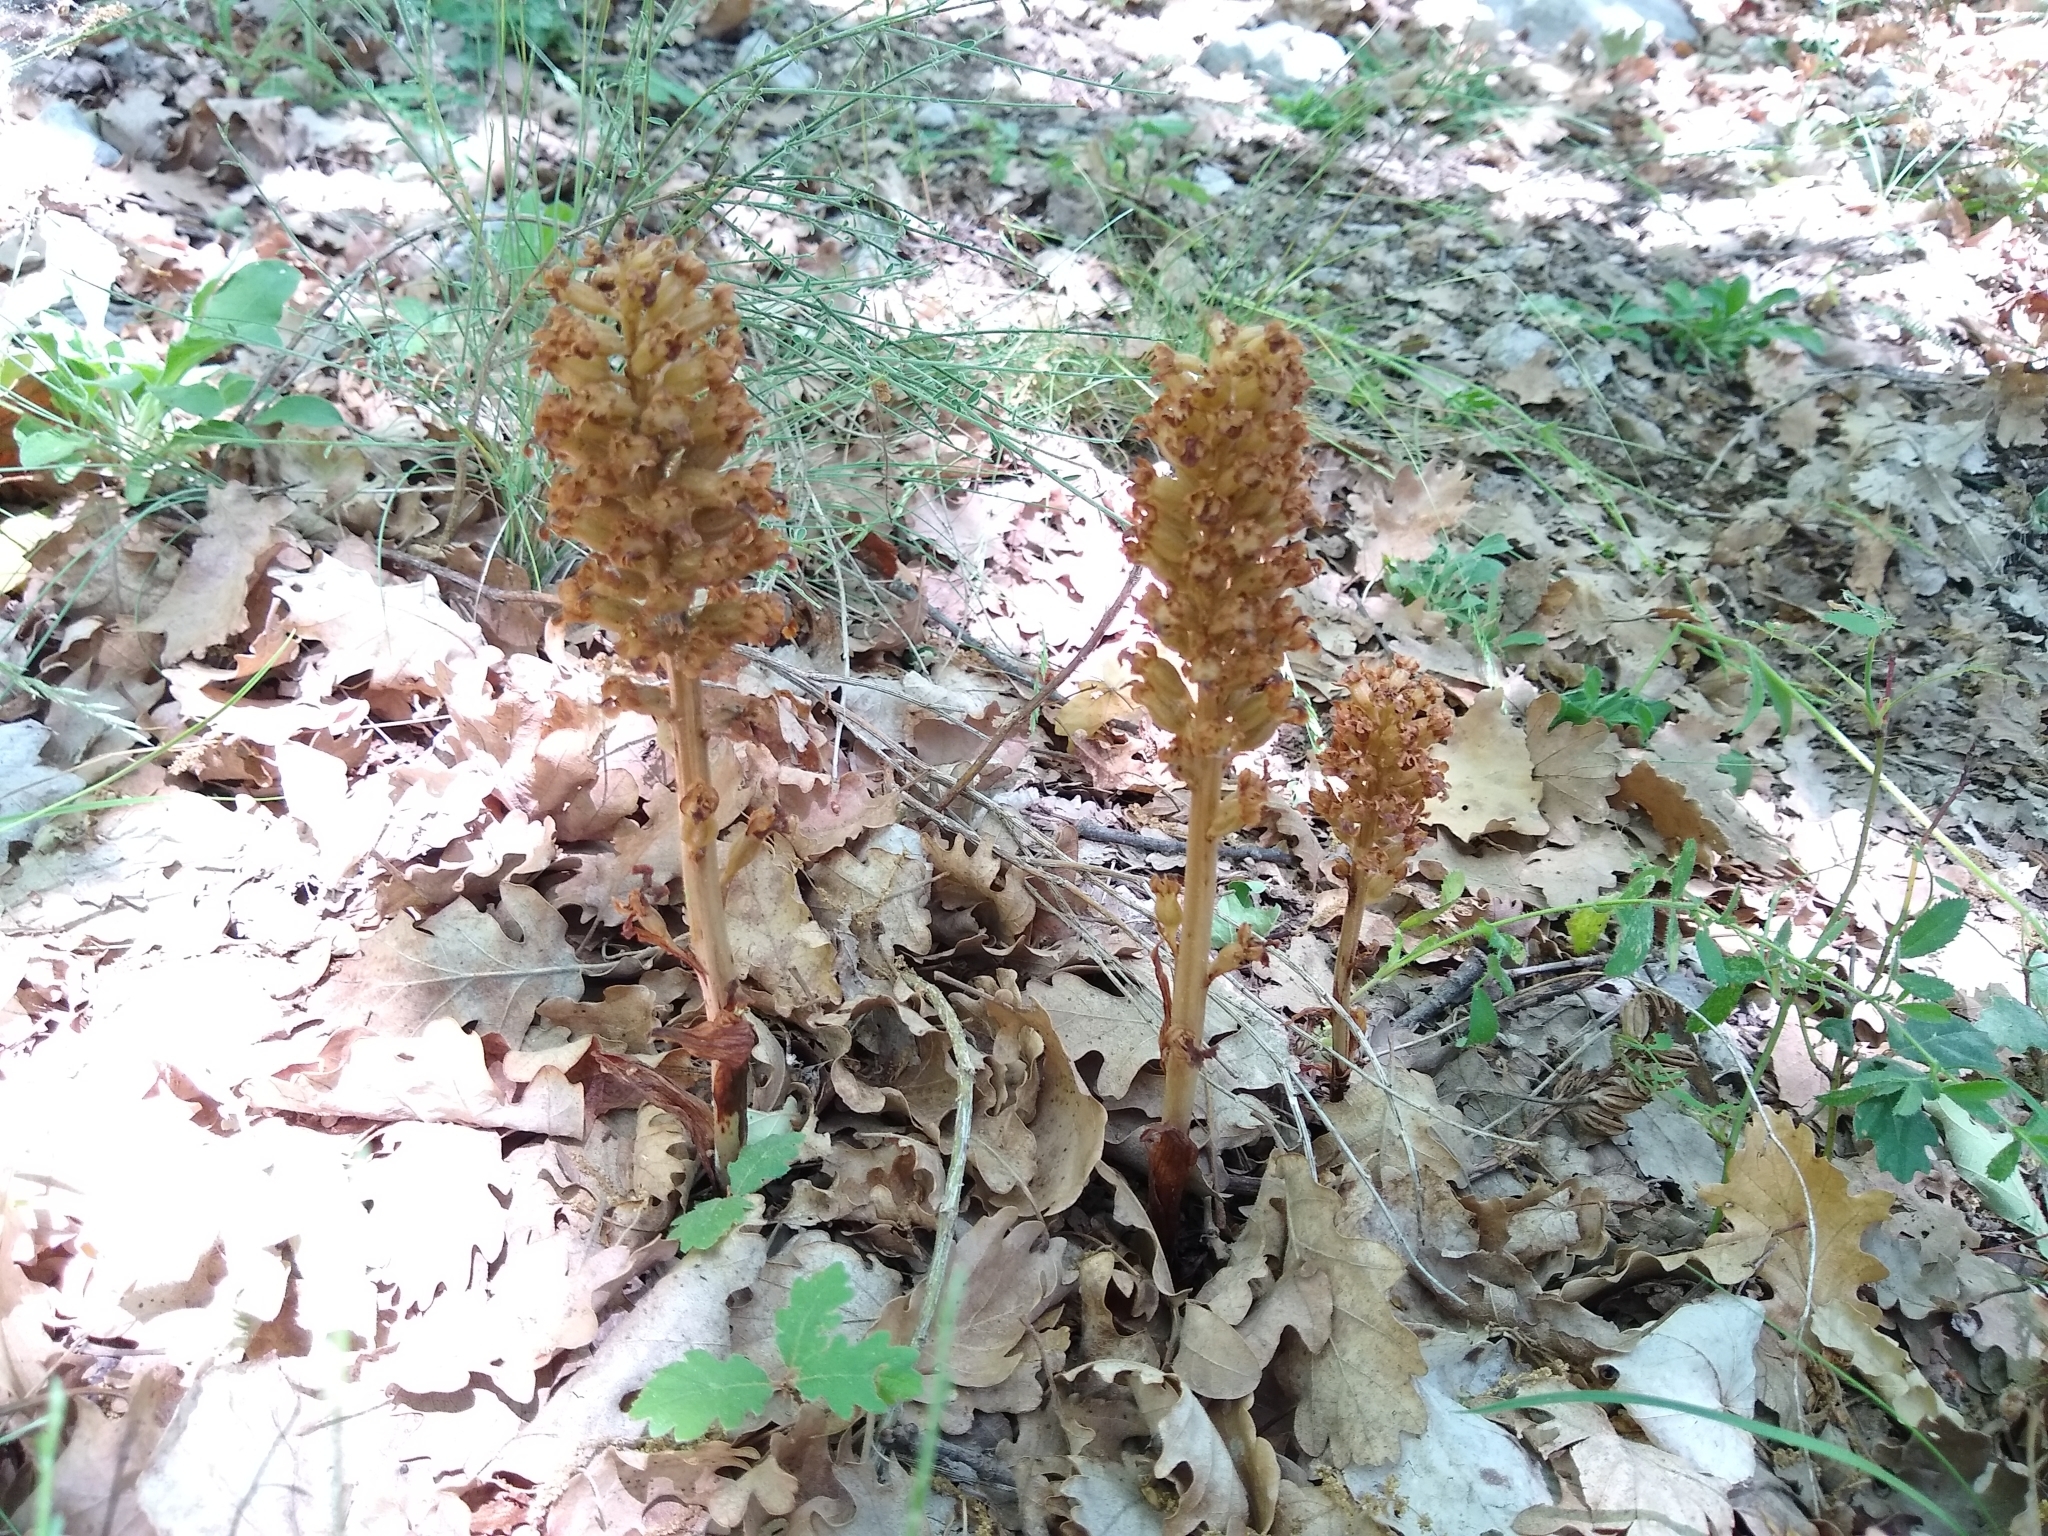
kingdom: Plantae
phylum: Tracheophyta
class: Liliopsida
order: Asparagales
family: Orchidaceae
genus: Neottia
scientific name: Neottia nidus-avis
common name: Bird's-nest orchid
